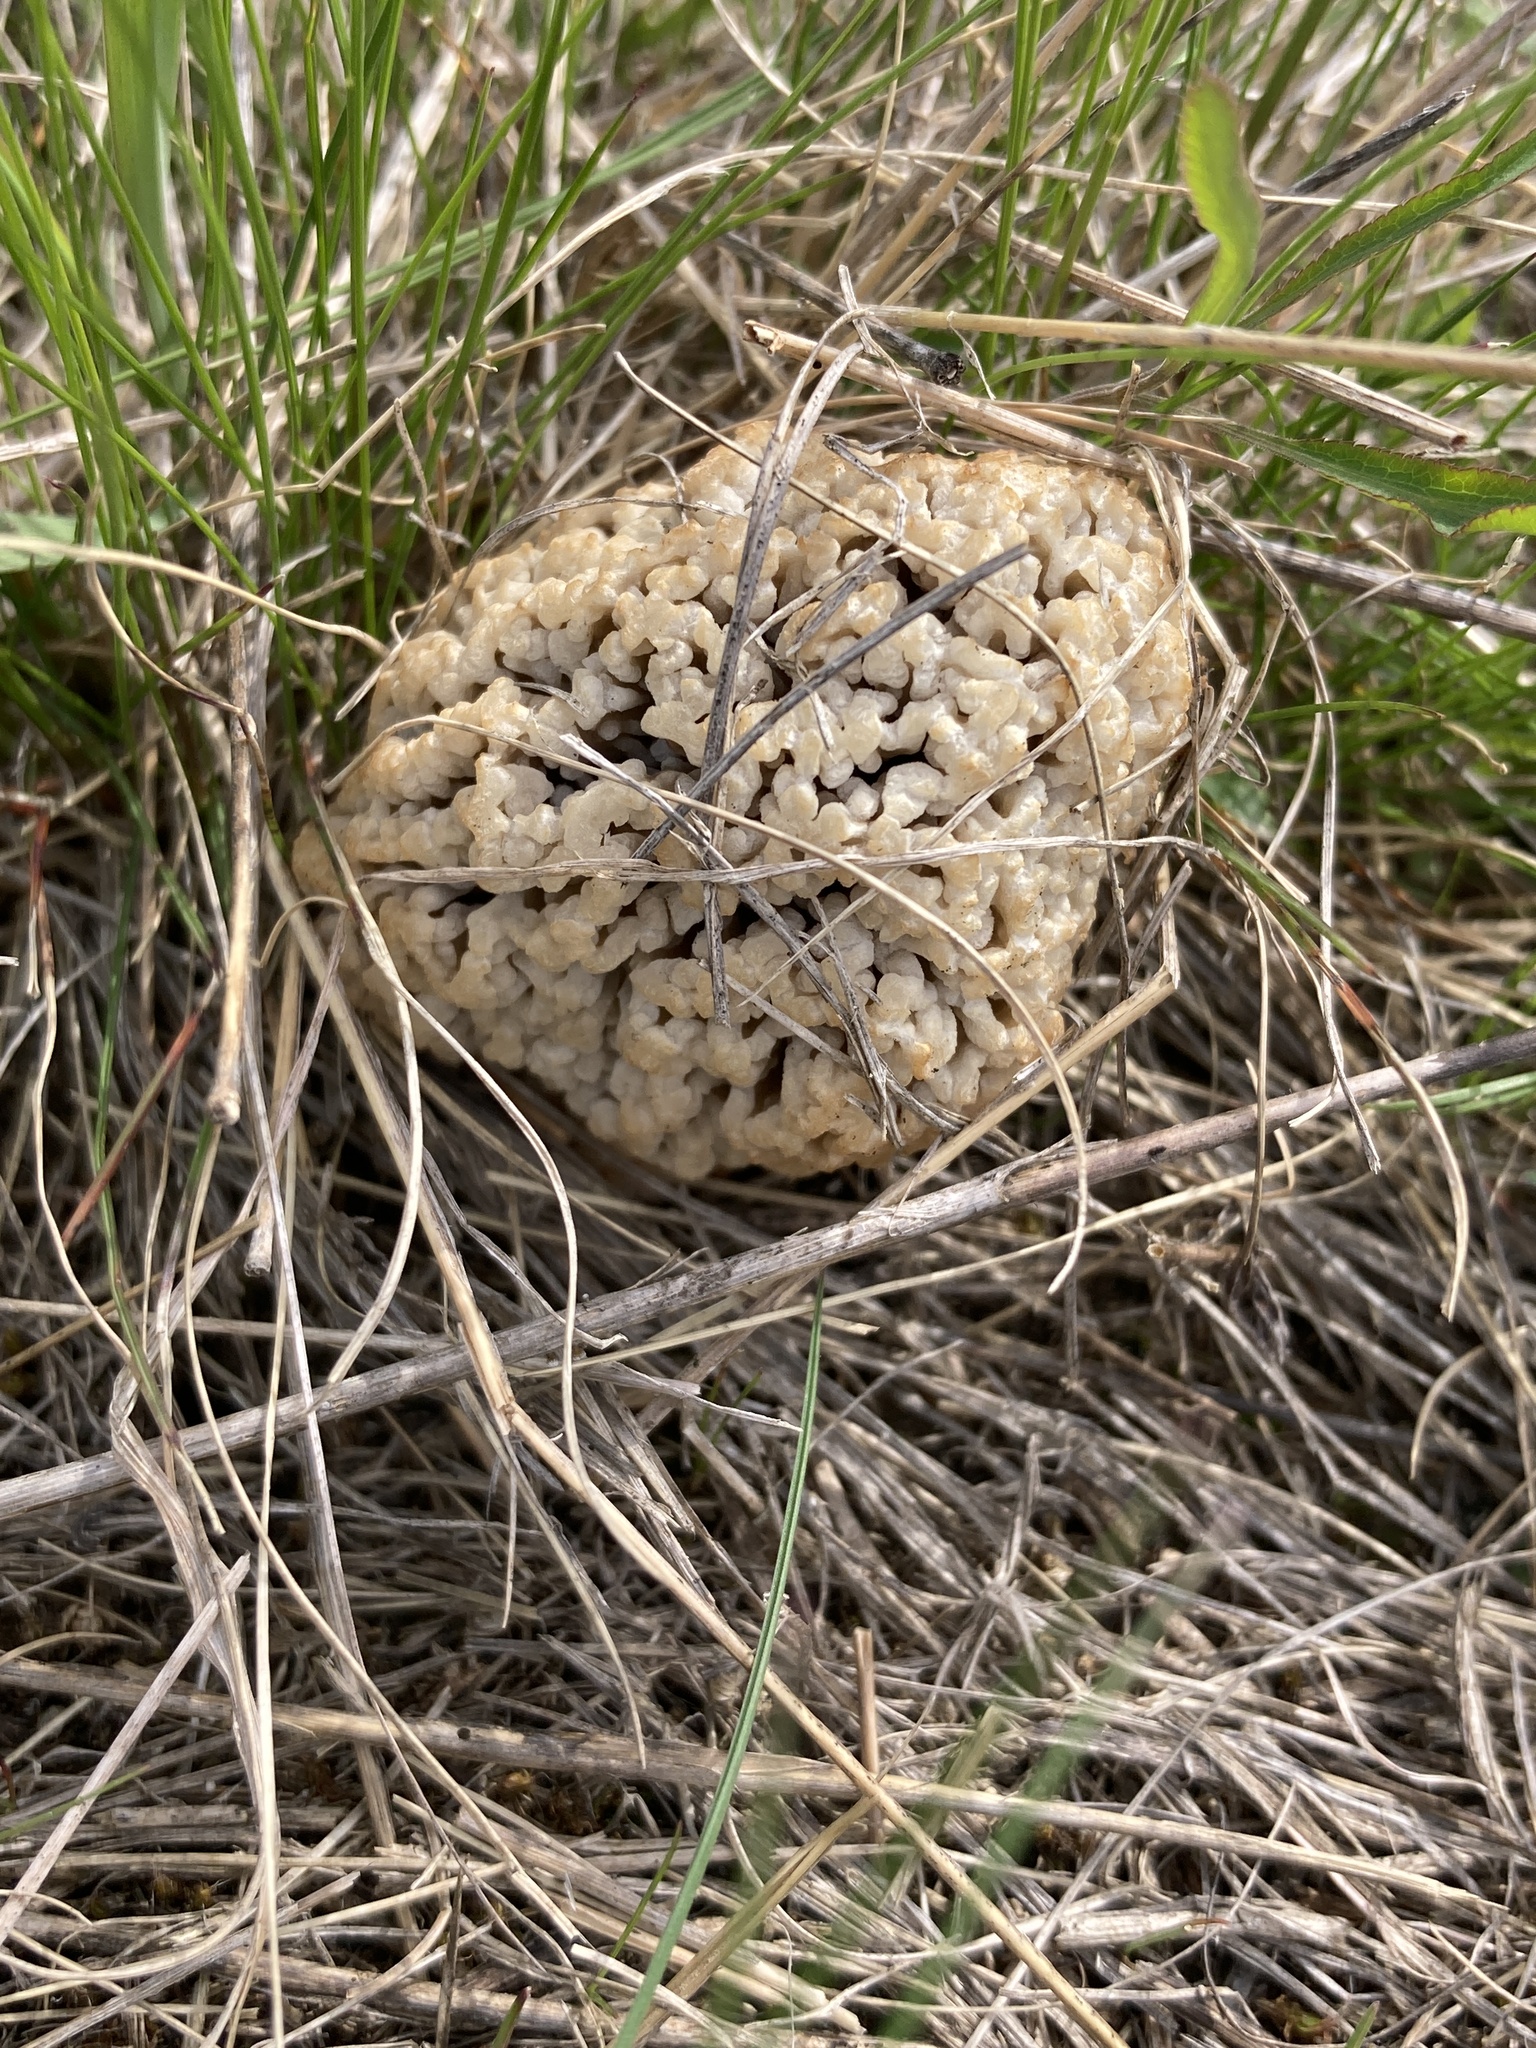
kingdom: Fungi
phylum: Ascomycota
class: Pezizomycetes
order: Pezizales
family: Morchellaceae
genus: Morchella
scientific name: Morchella steppicola
